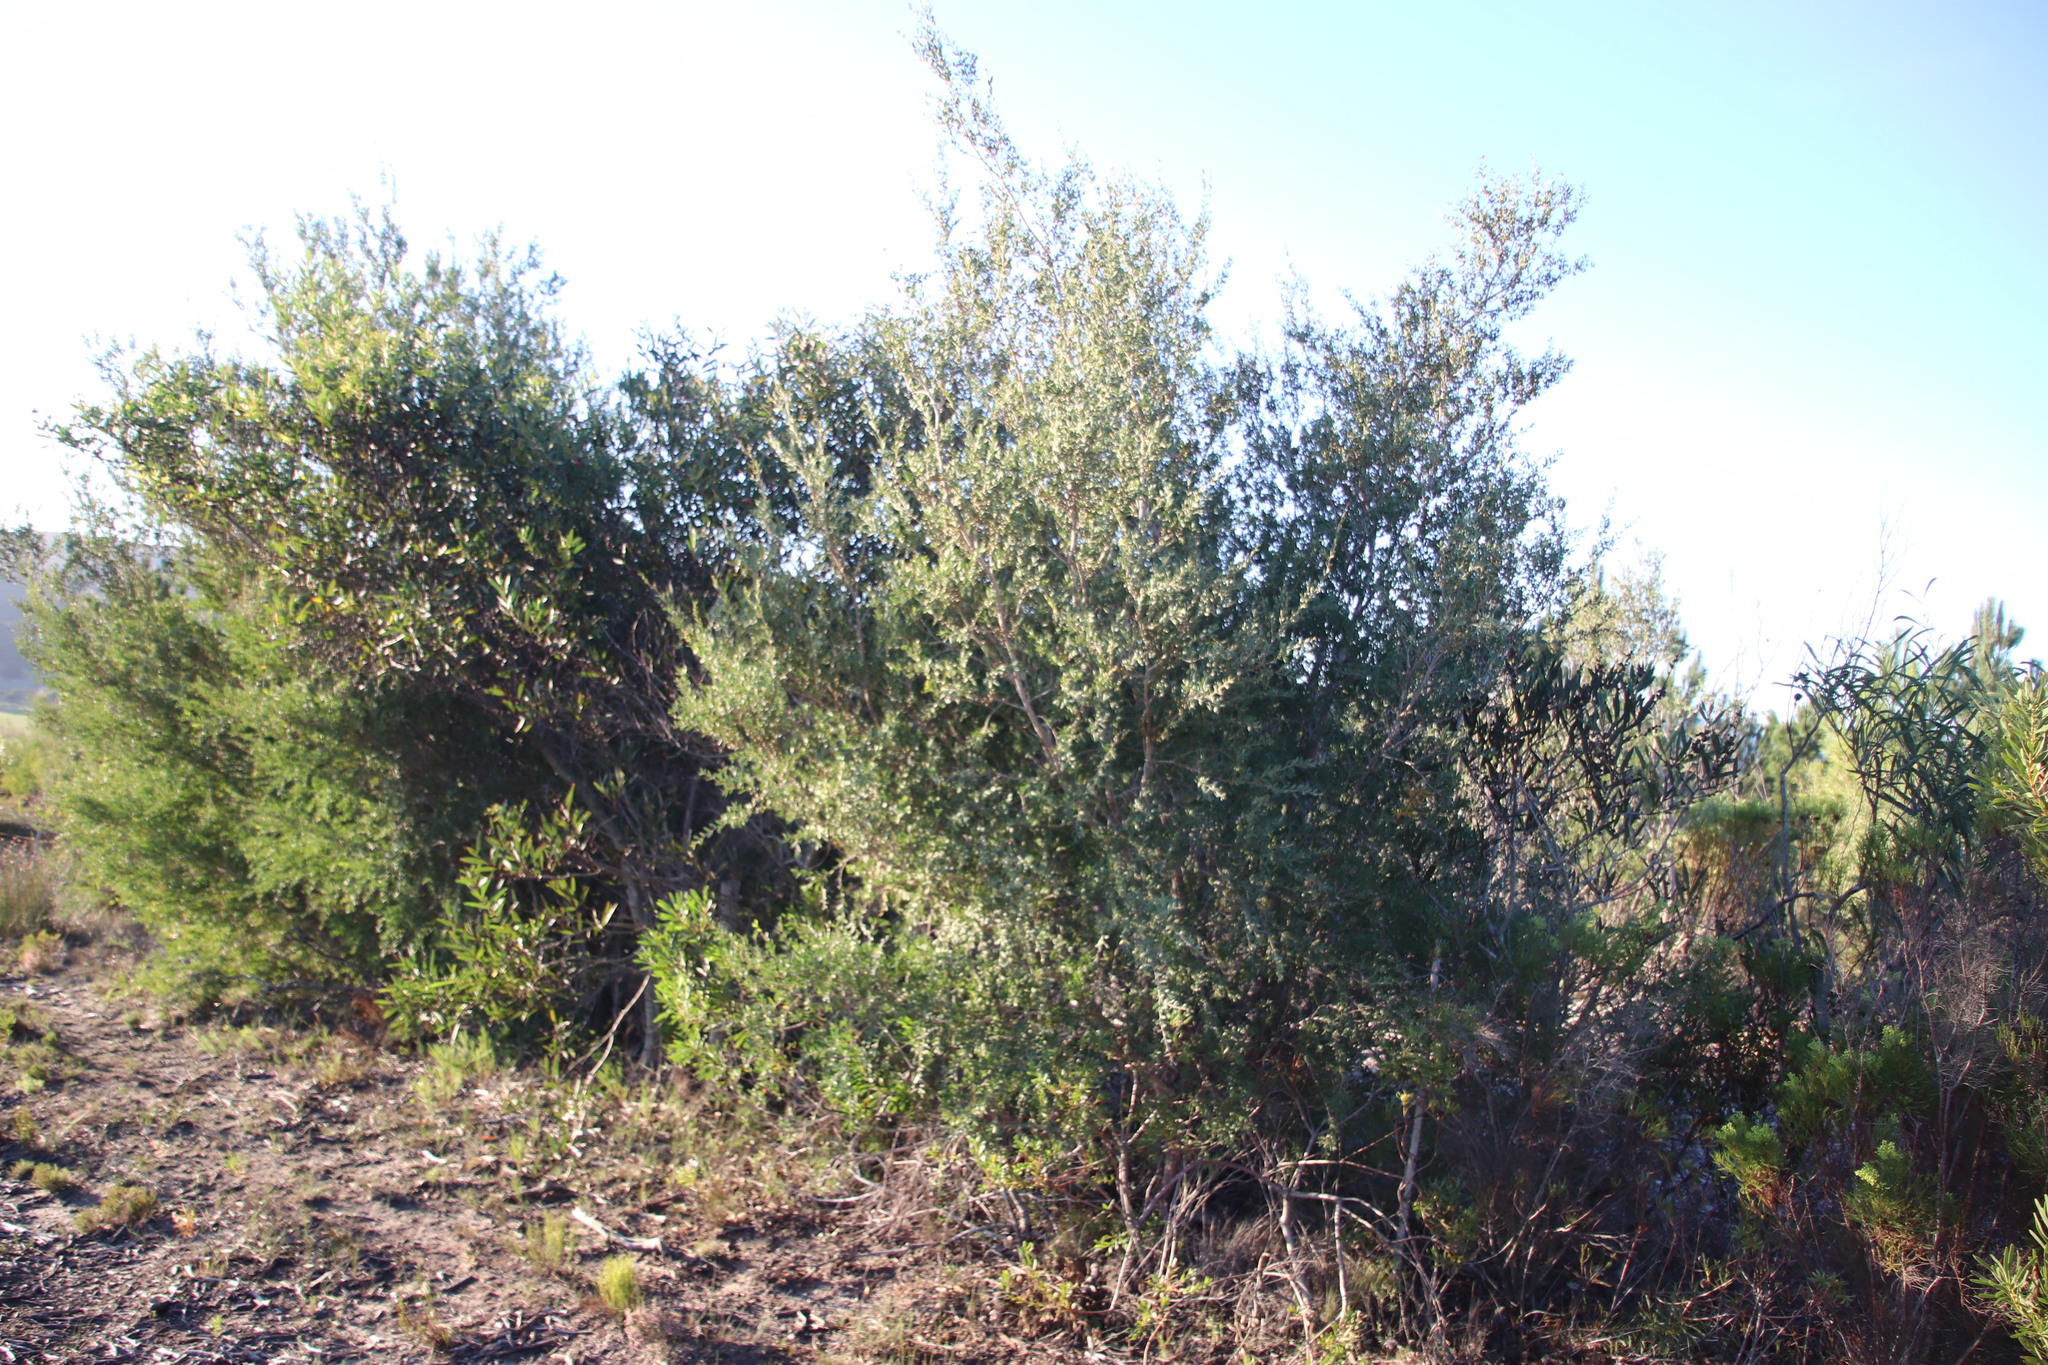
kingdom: Plantae
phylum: Tracheophyta
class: Magnoliopsida
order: Myrtales
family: Myrtaceae
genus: Leptospermum
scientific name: Leptospermum laevigatum
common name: Australian teatree
